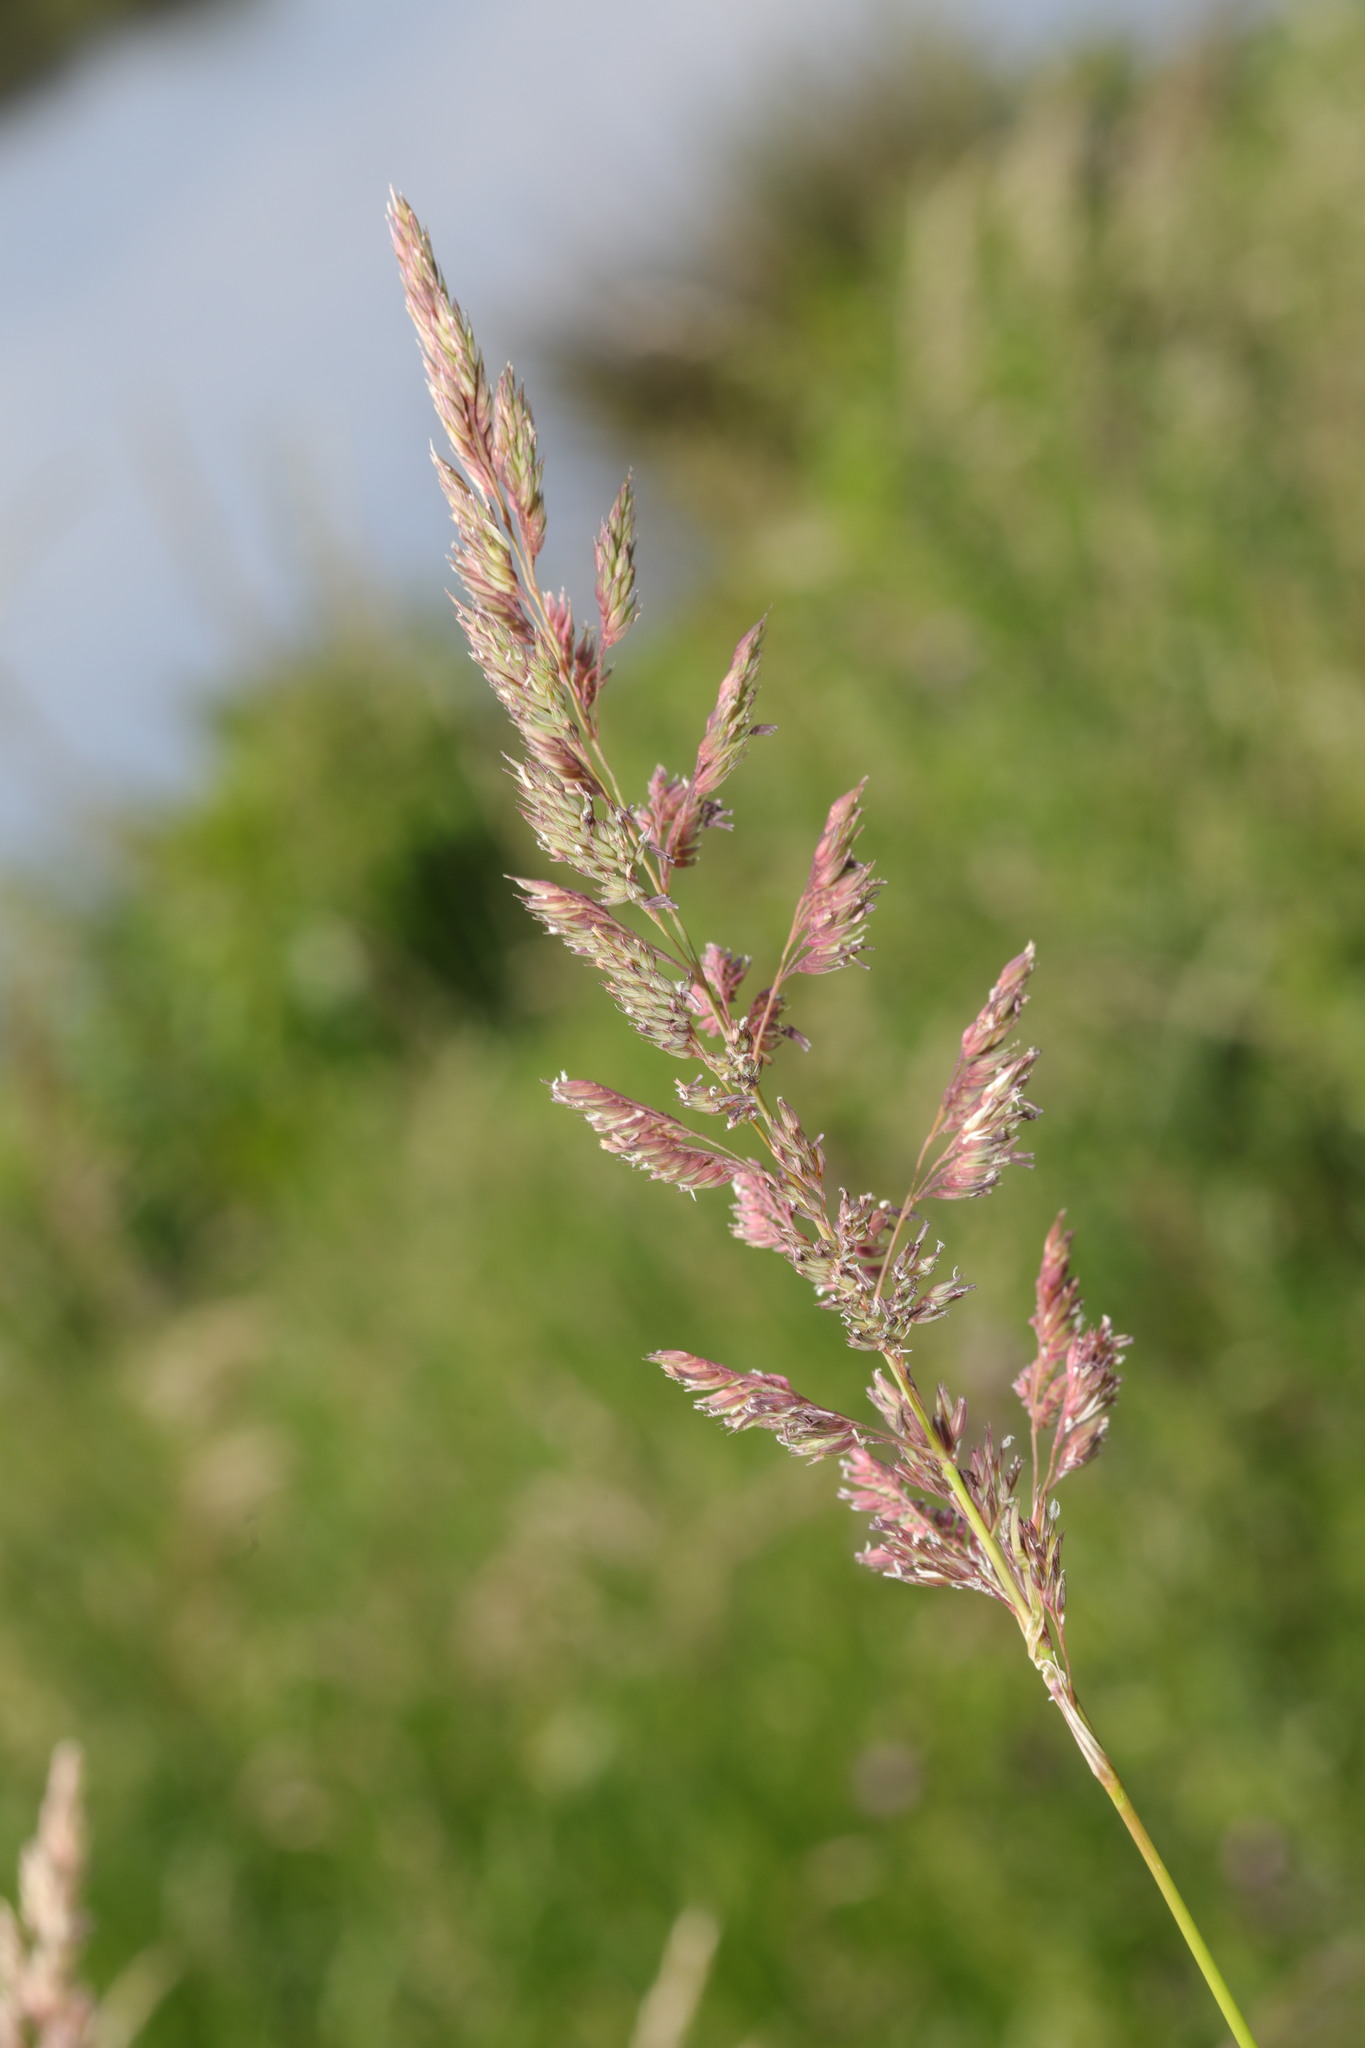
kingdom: Plantae
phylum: Tracheophyta
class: Liliopsida
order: Poales
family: Poaceae
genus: Phalaris
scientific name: Phalaris arundinacea
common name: Reed canary-grass
